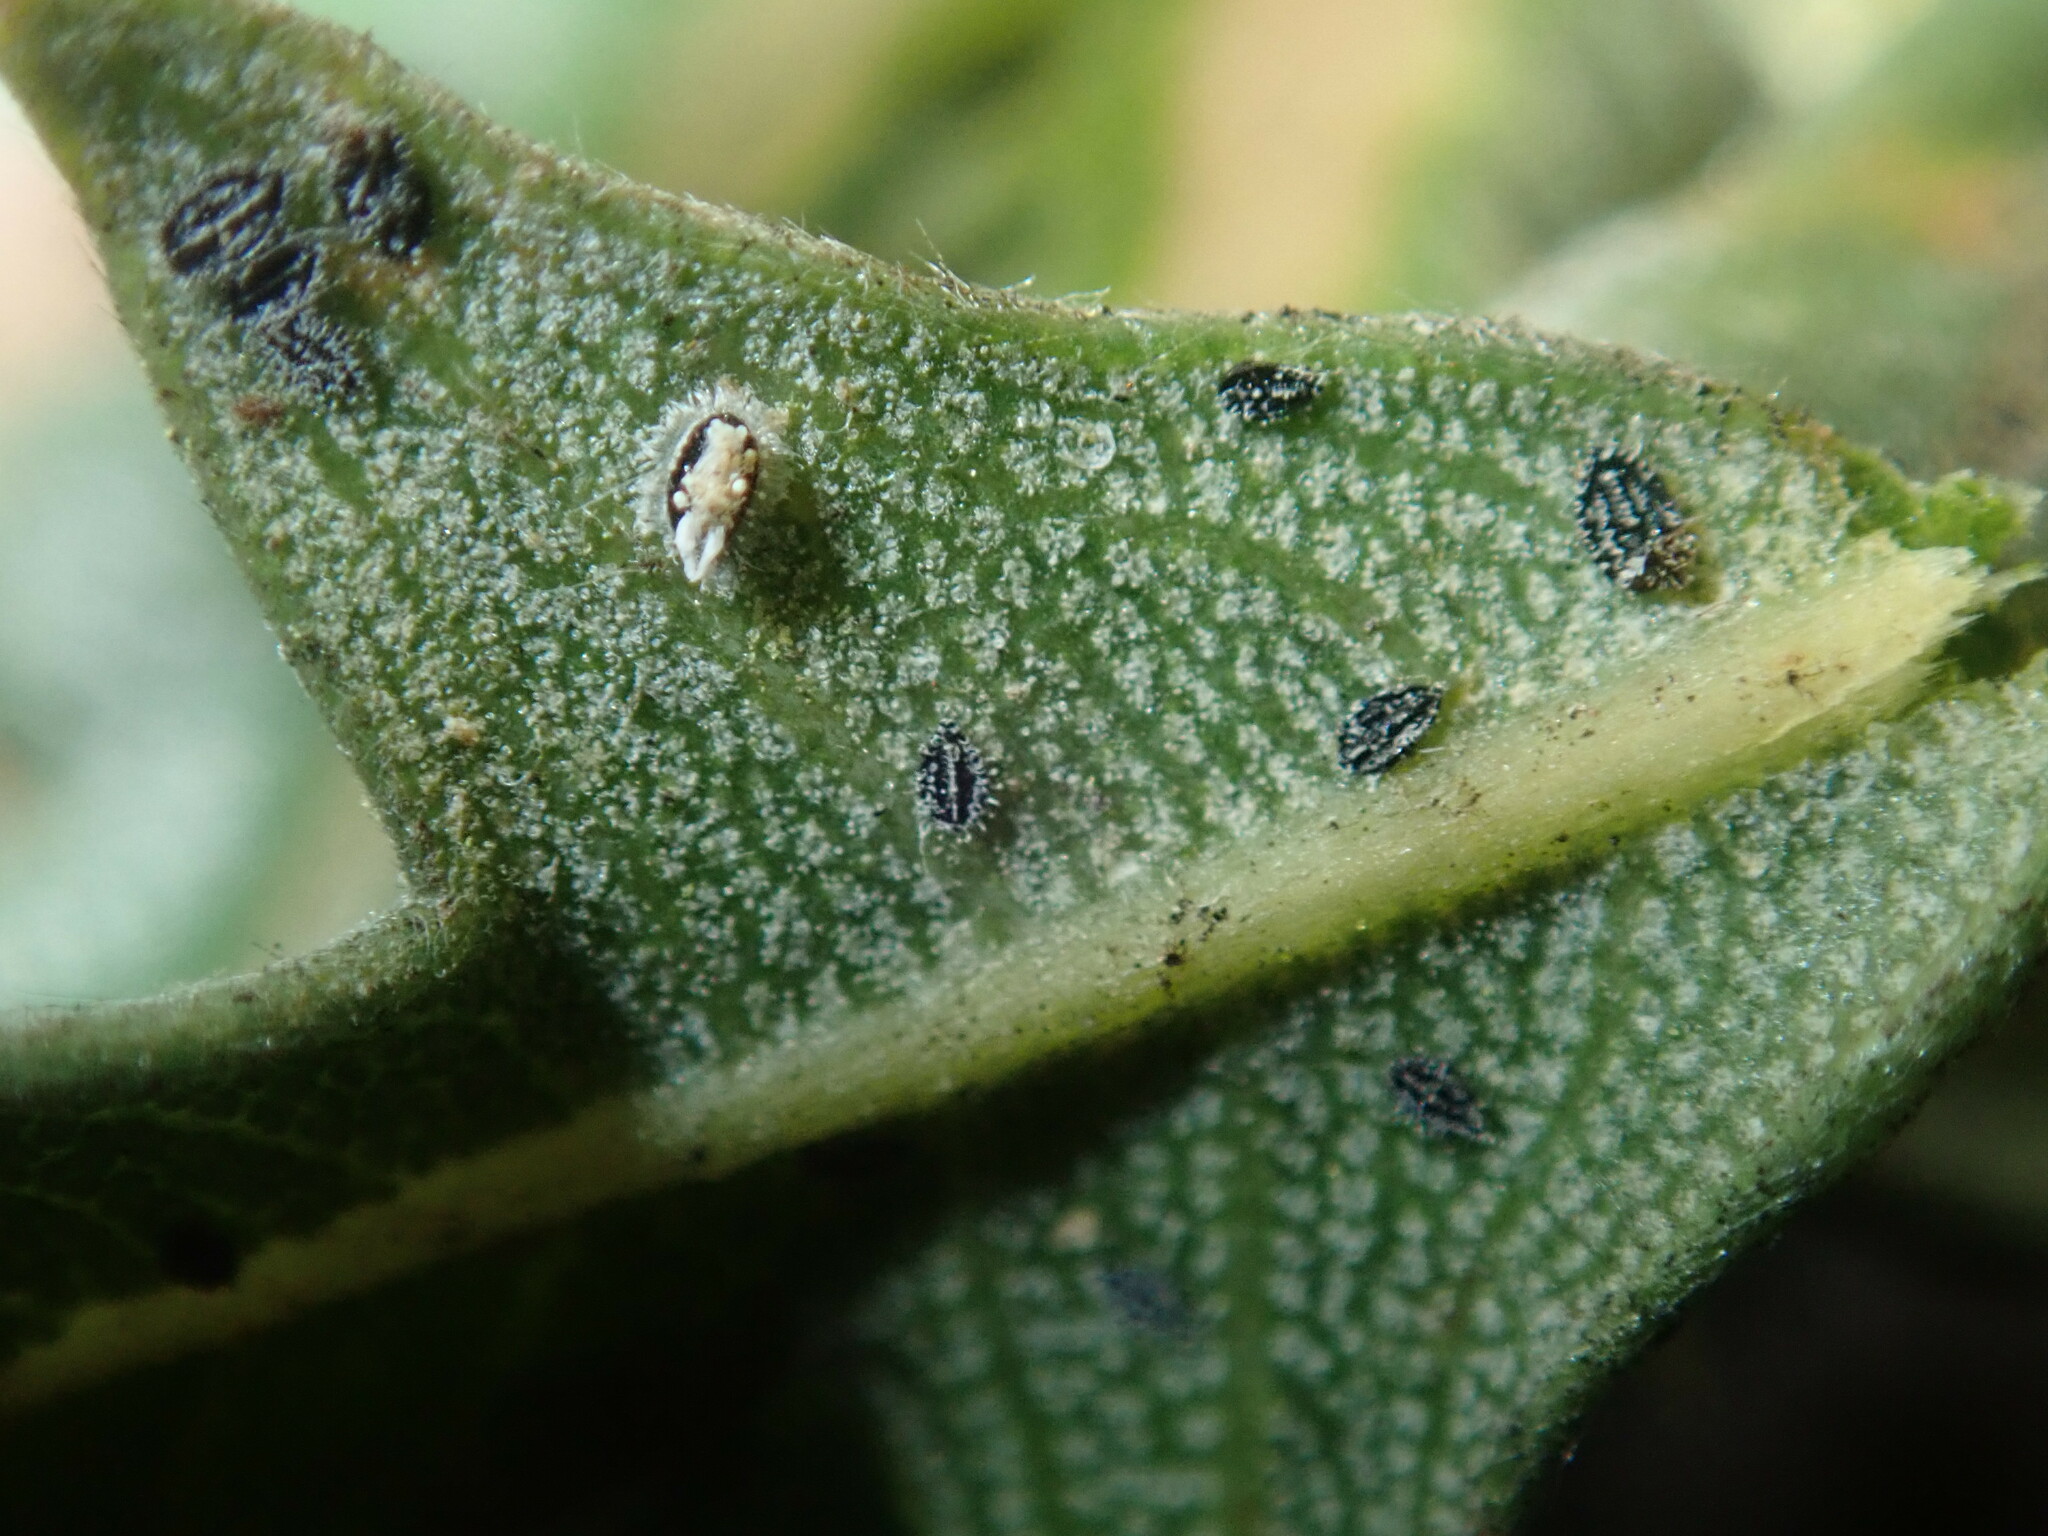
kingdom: Animalia
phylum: Arthropoda
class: Insecta
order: Hemiptera
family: Aleyrodidae
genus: Aleurocanthus
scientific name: Aleurocanthus laurenae
